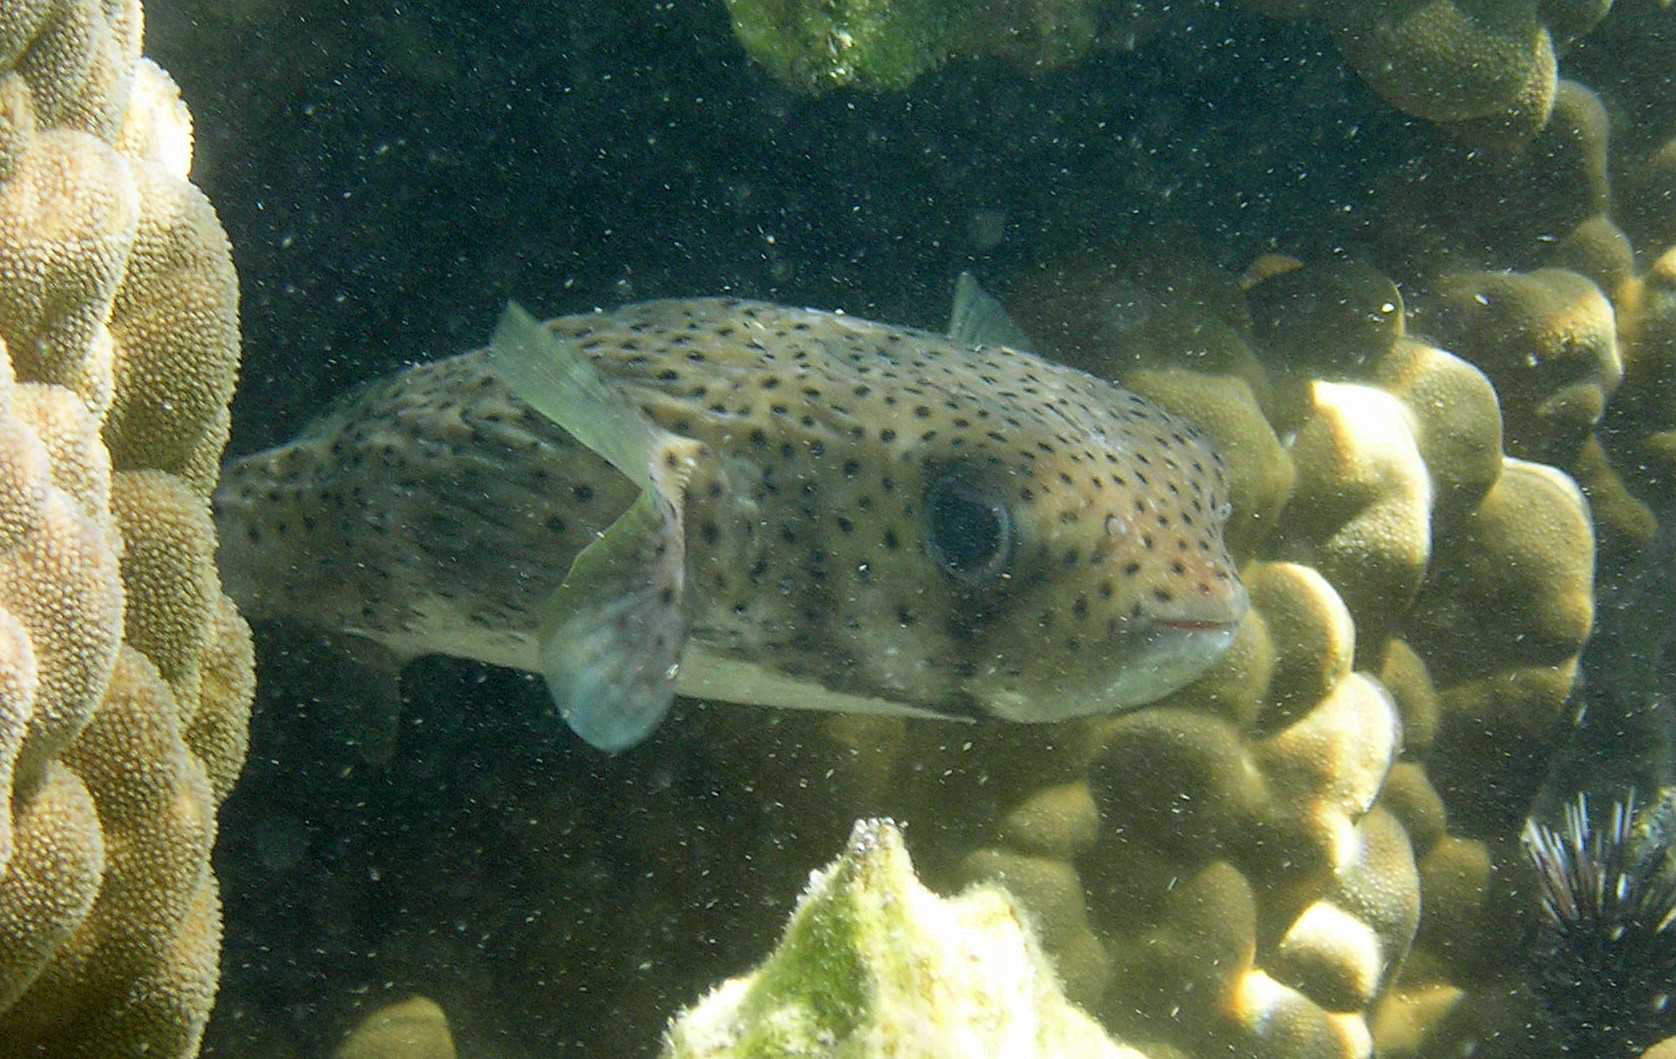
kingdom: Animalia
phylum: Chordata
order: Tetraodontiformes
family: Diodontidae
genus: Diodon
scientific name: Diodon hystrix
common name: Giant porcupinefish
